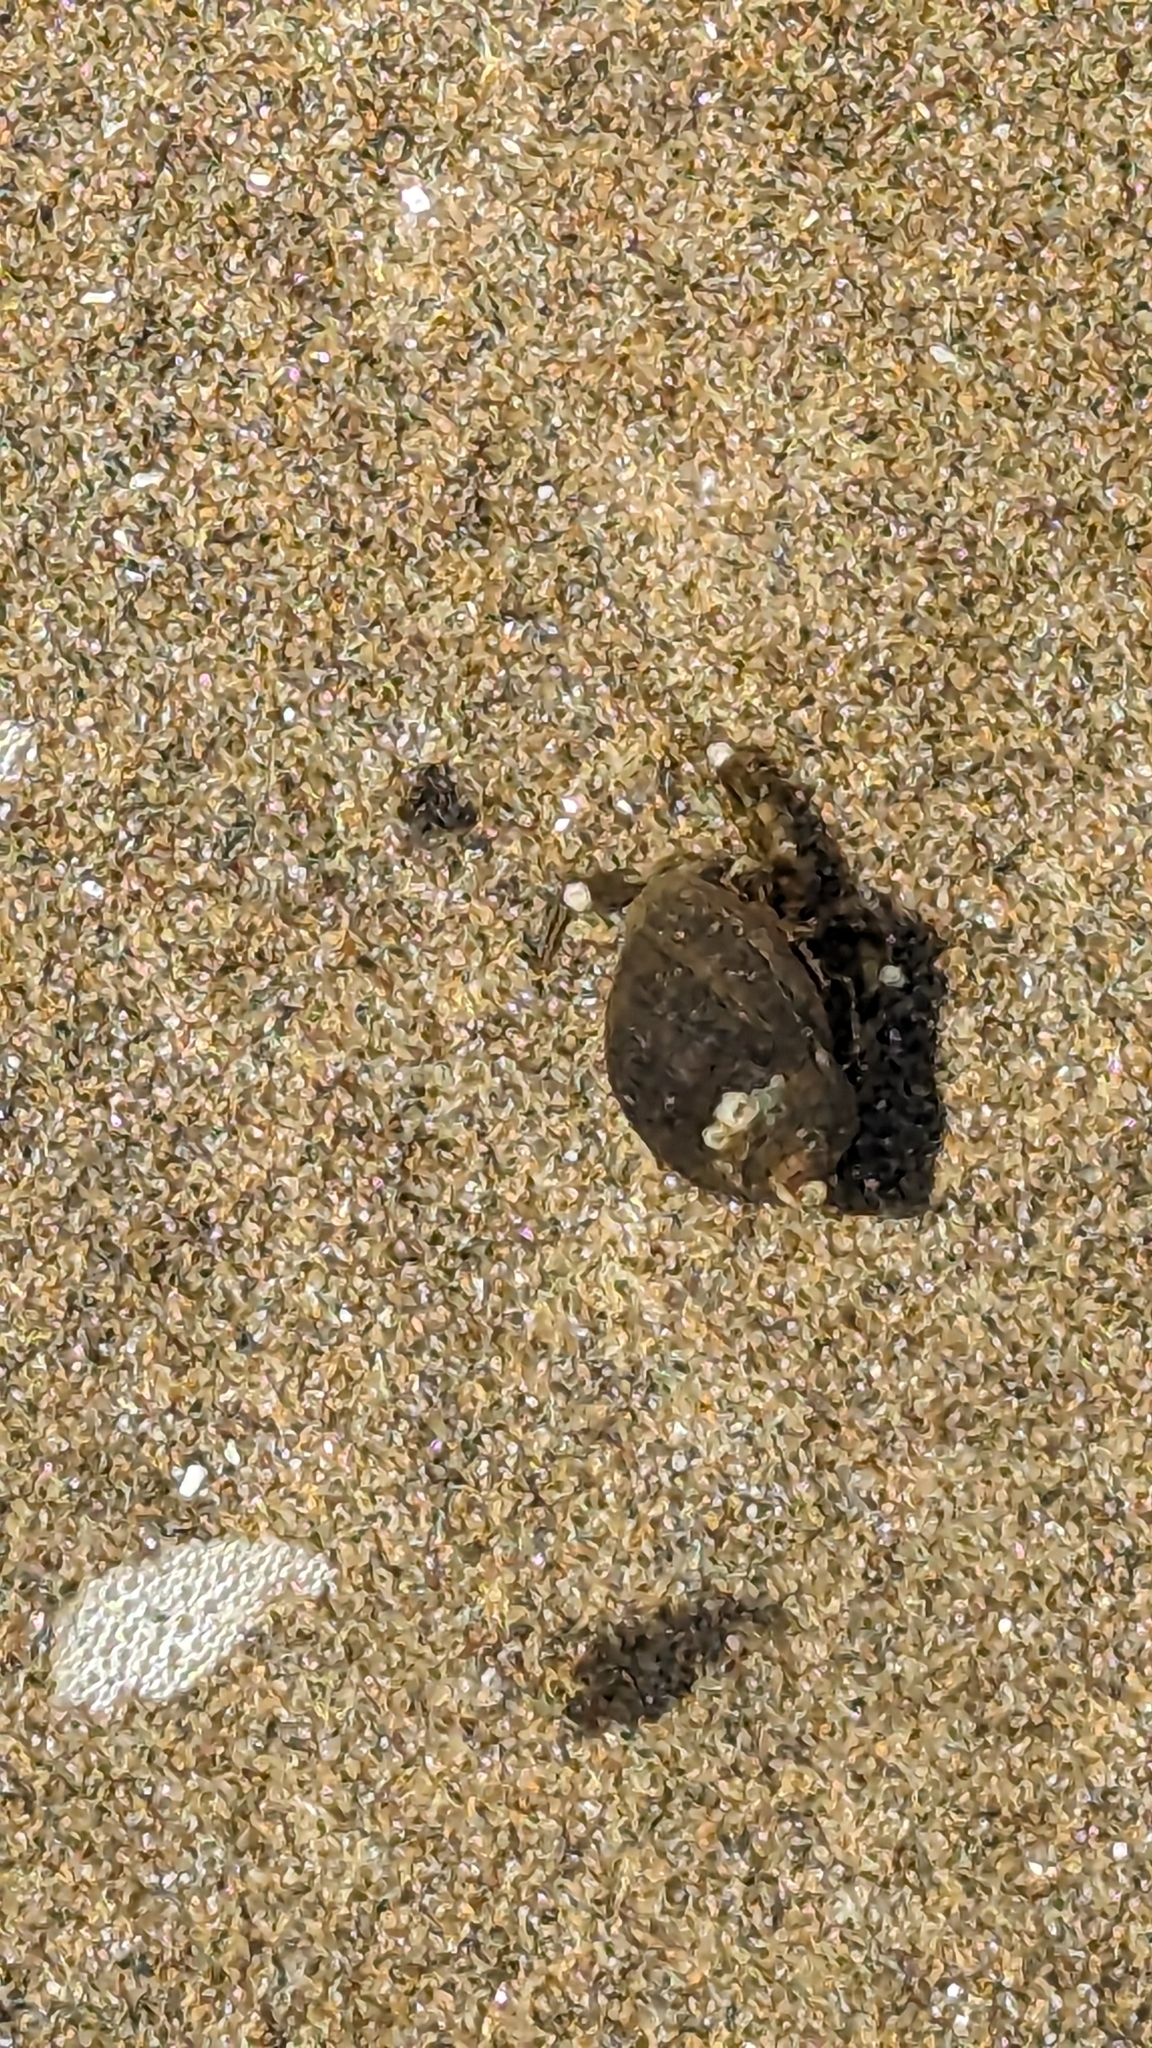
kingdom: Animalia
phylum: Arthropoda
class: Malacostraca
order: Decapoda
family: Paguridae
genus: Pagurus
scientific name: Pagurus hirsutiusculus
